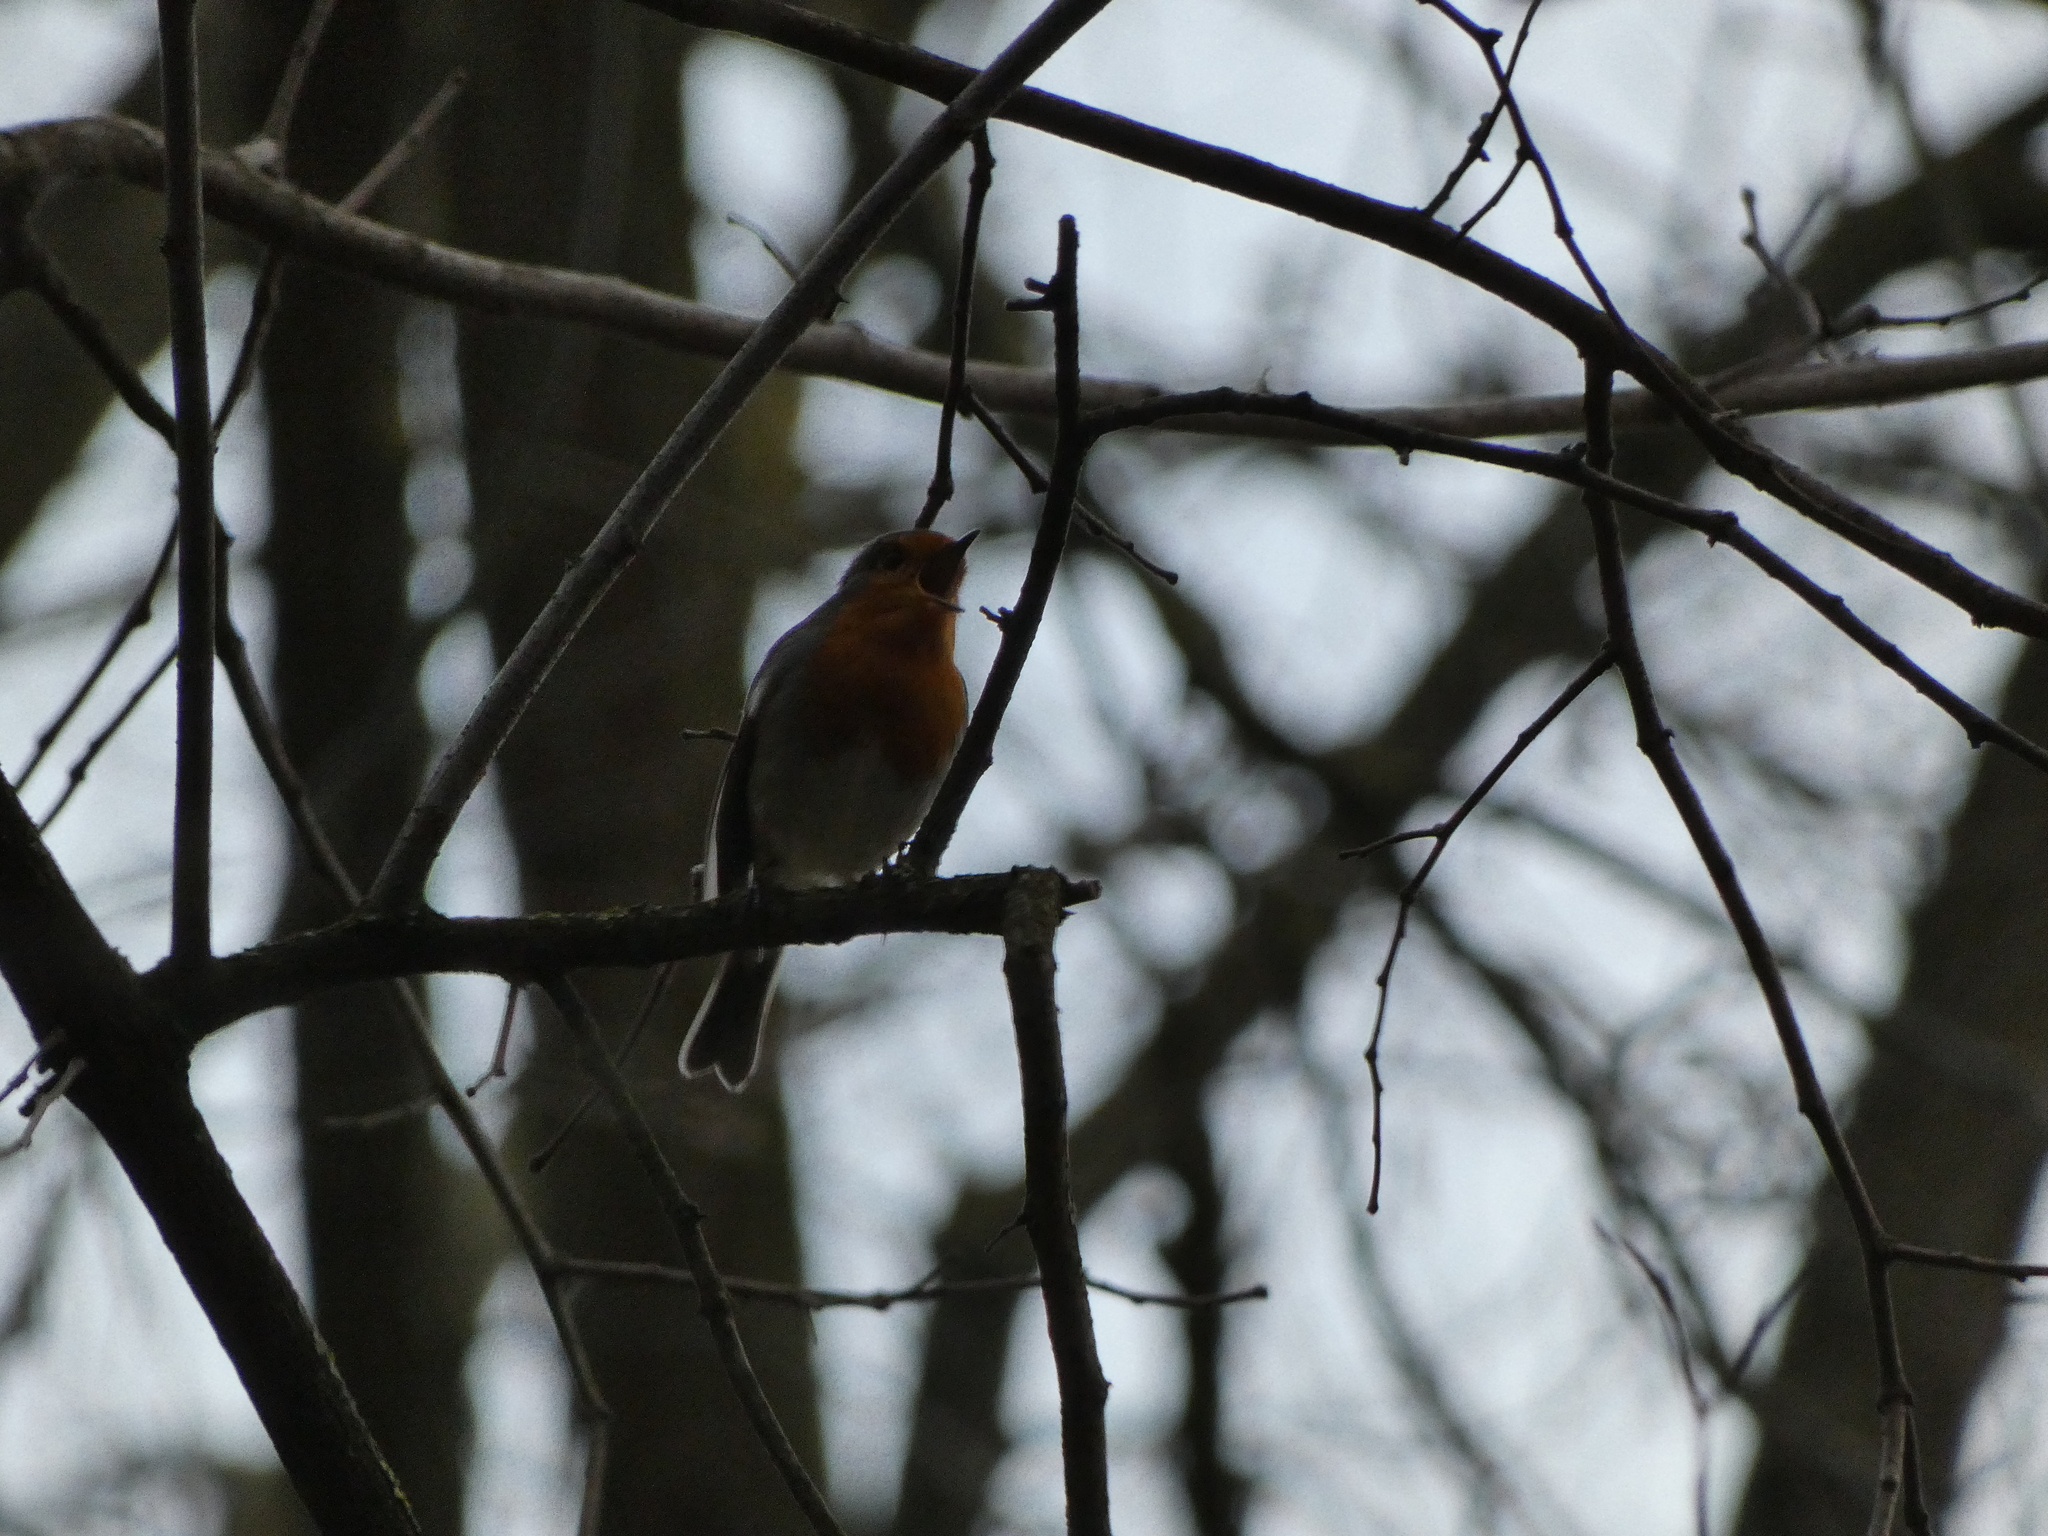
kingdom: Animalia
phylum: Chordata
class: Aves
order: Passeriformes
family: Muscicapidae
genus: Erithacus
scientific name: Erithacus rubecula
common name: European robin
